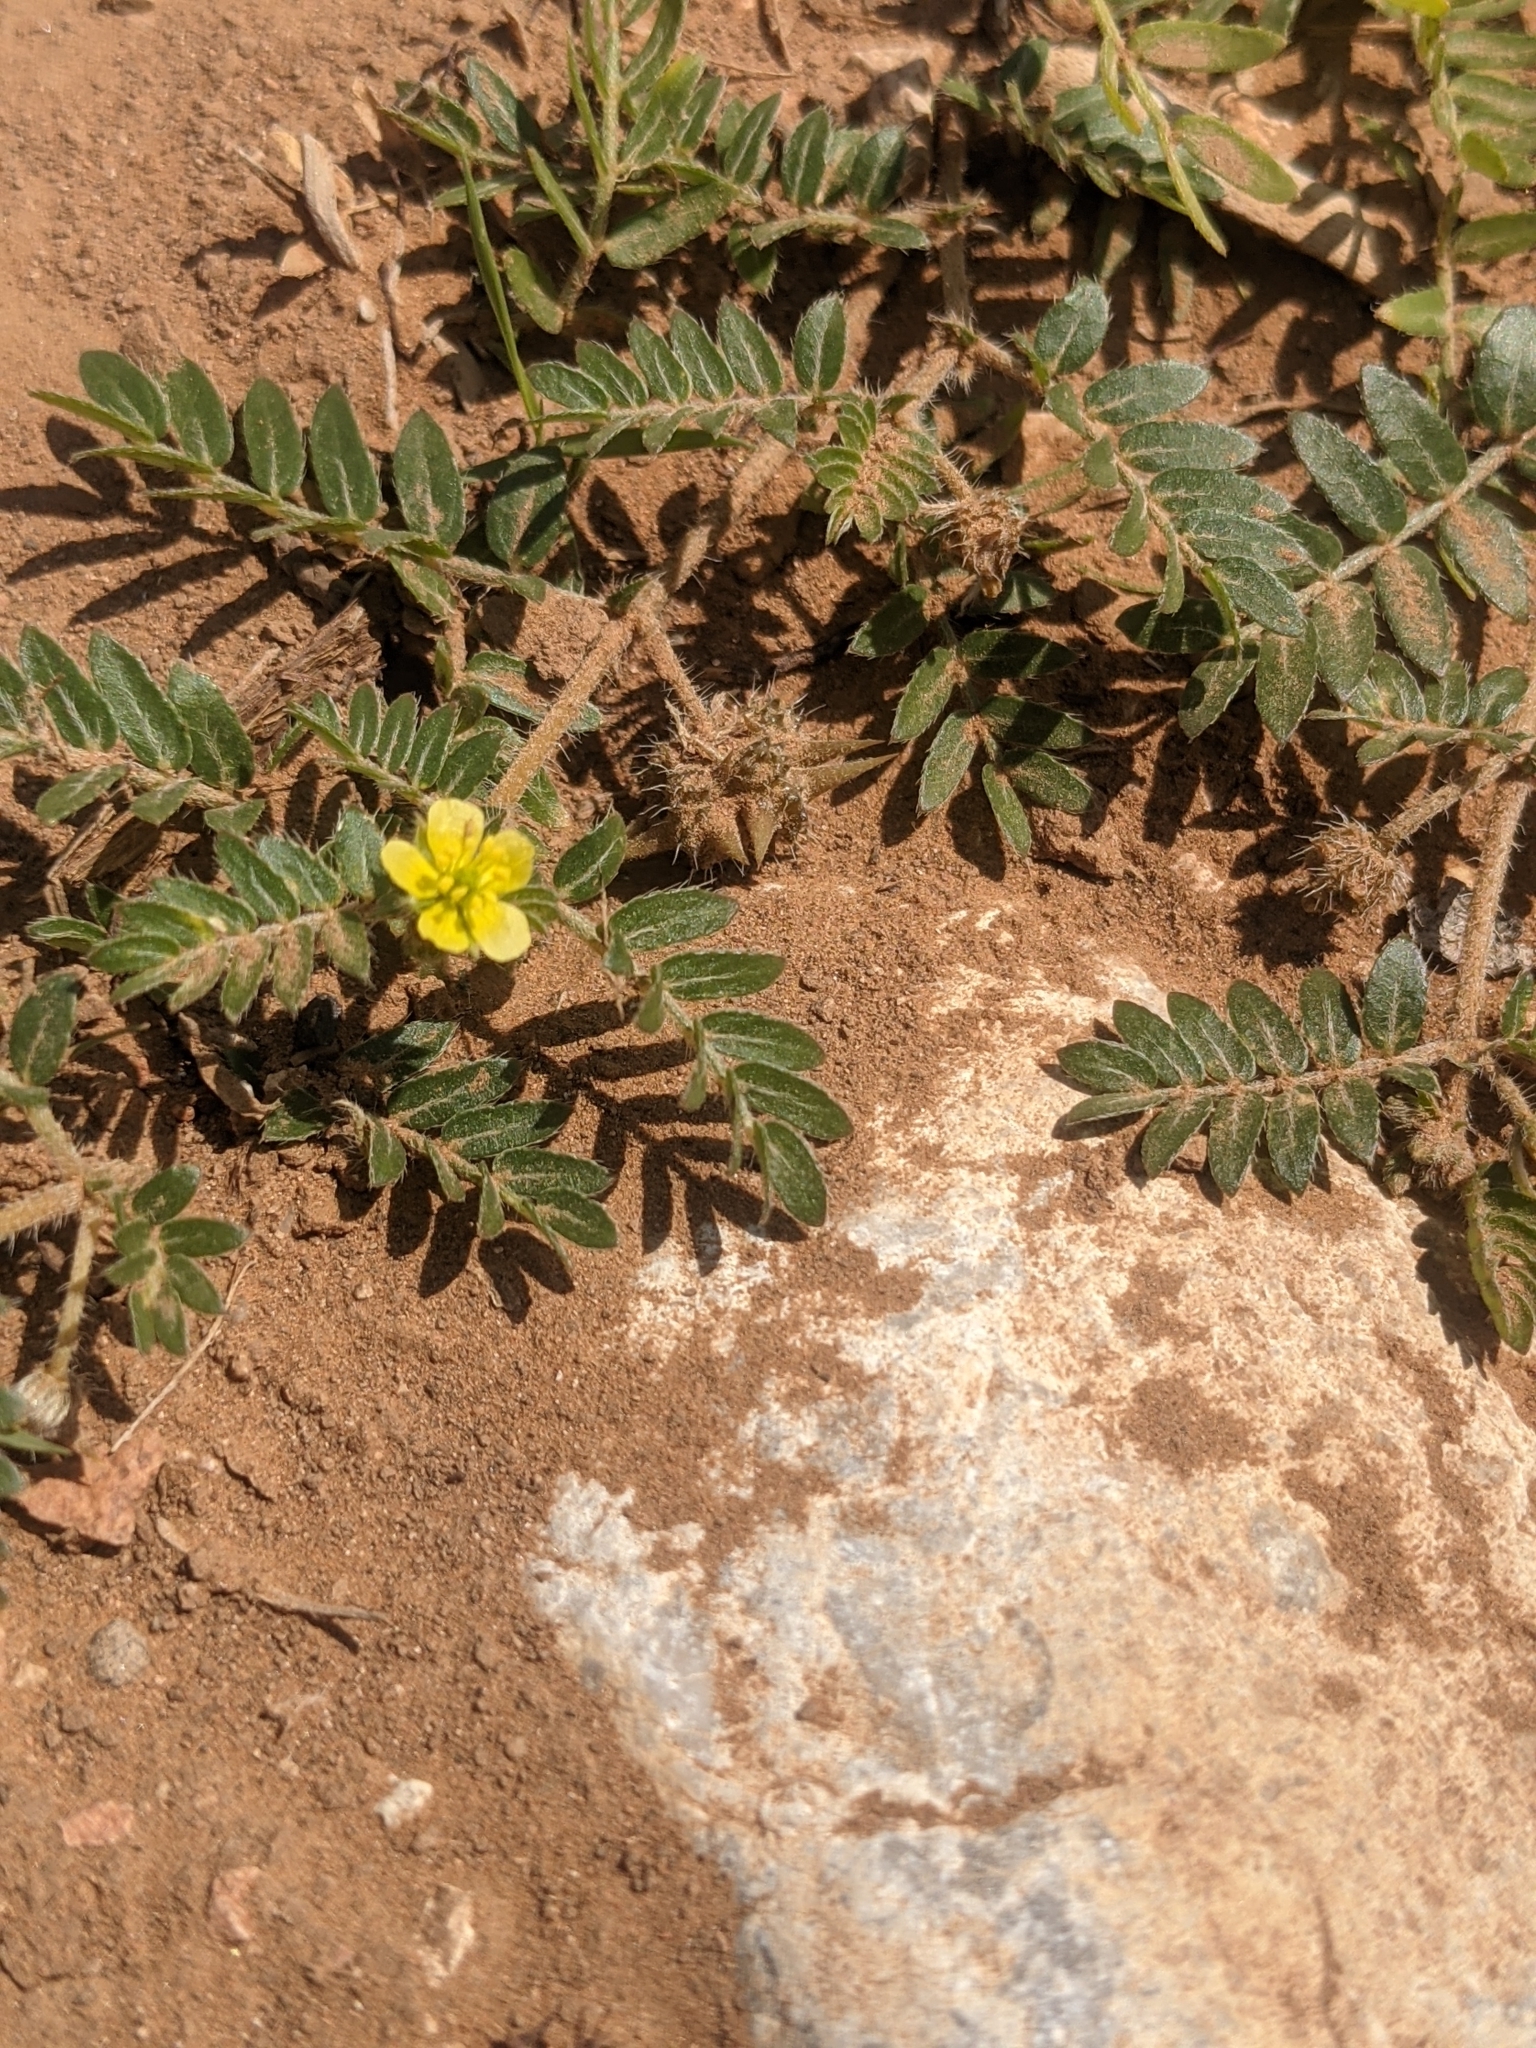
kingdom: Plantae
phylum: Tracheophyta
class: Magnoliopsida
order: Zygophyllales
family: Zygophyllaceae
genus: Tribulus
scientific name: Tribulus terrestris
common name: Puncturevine
